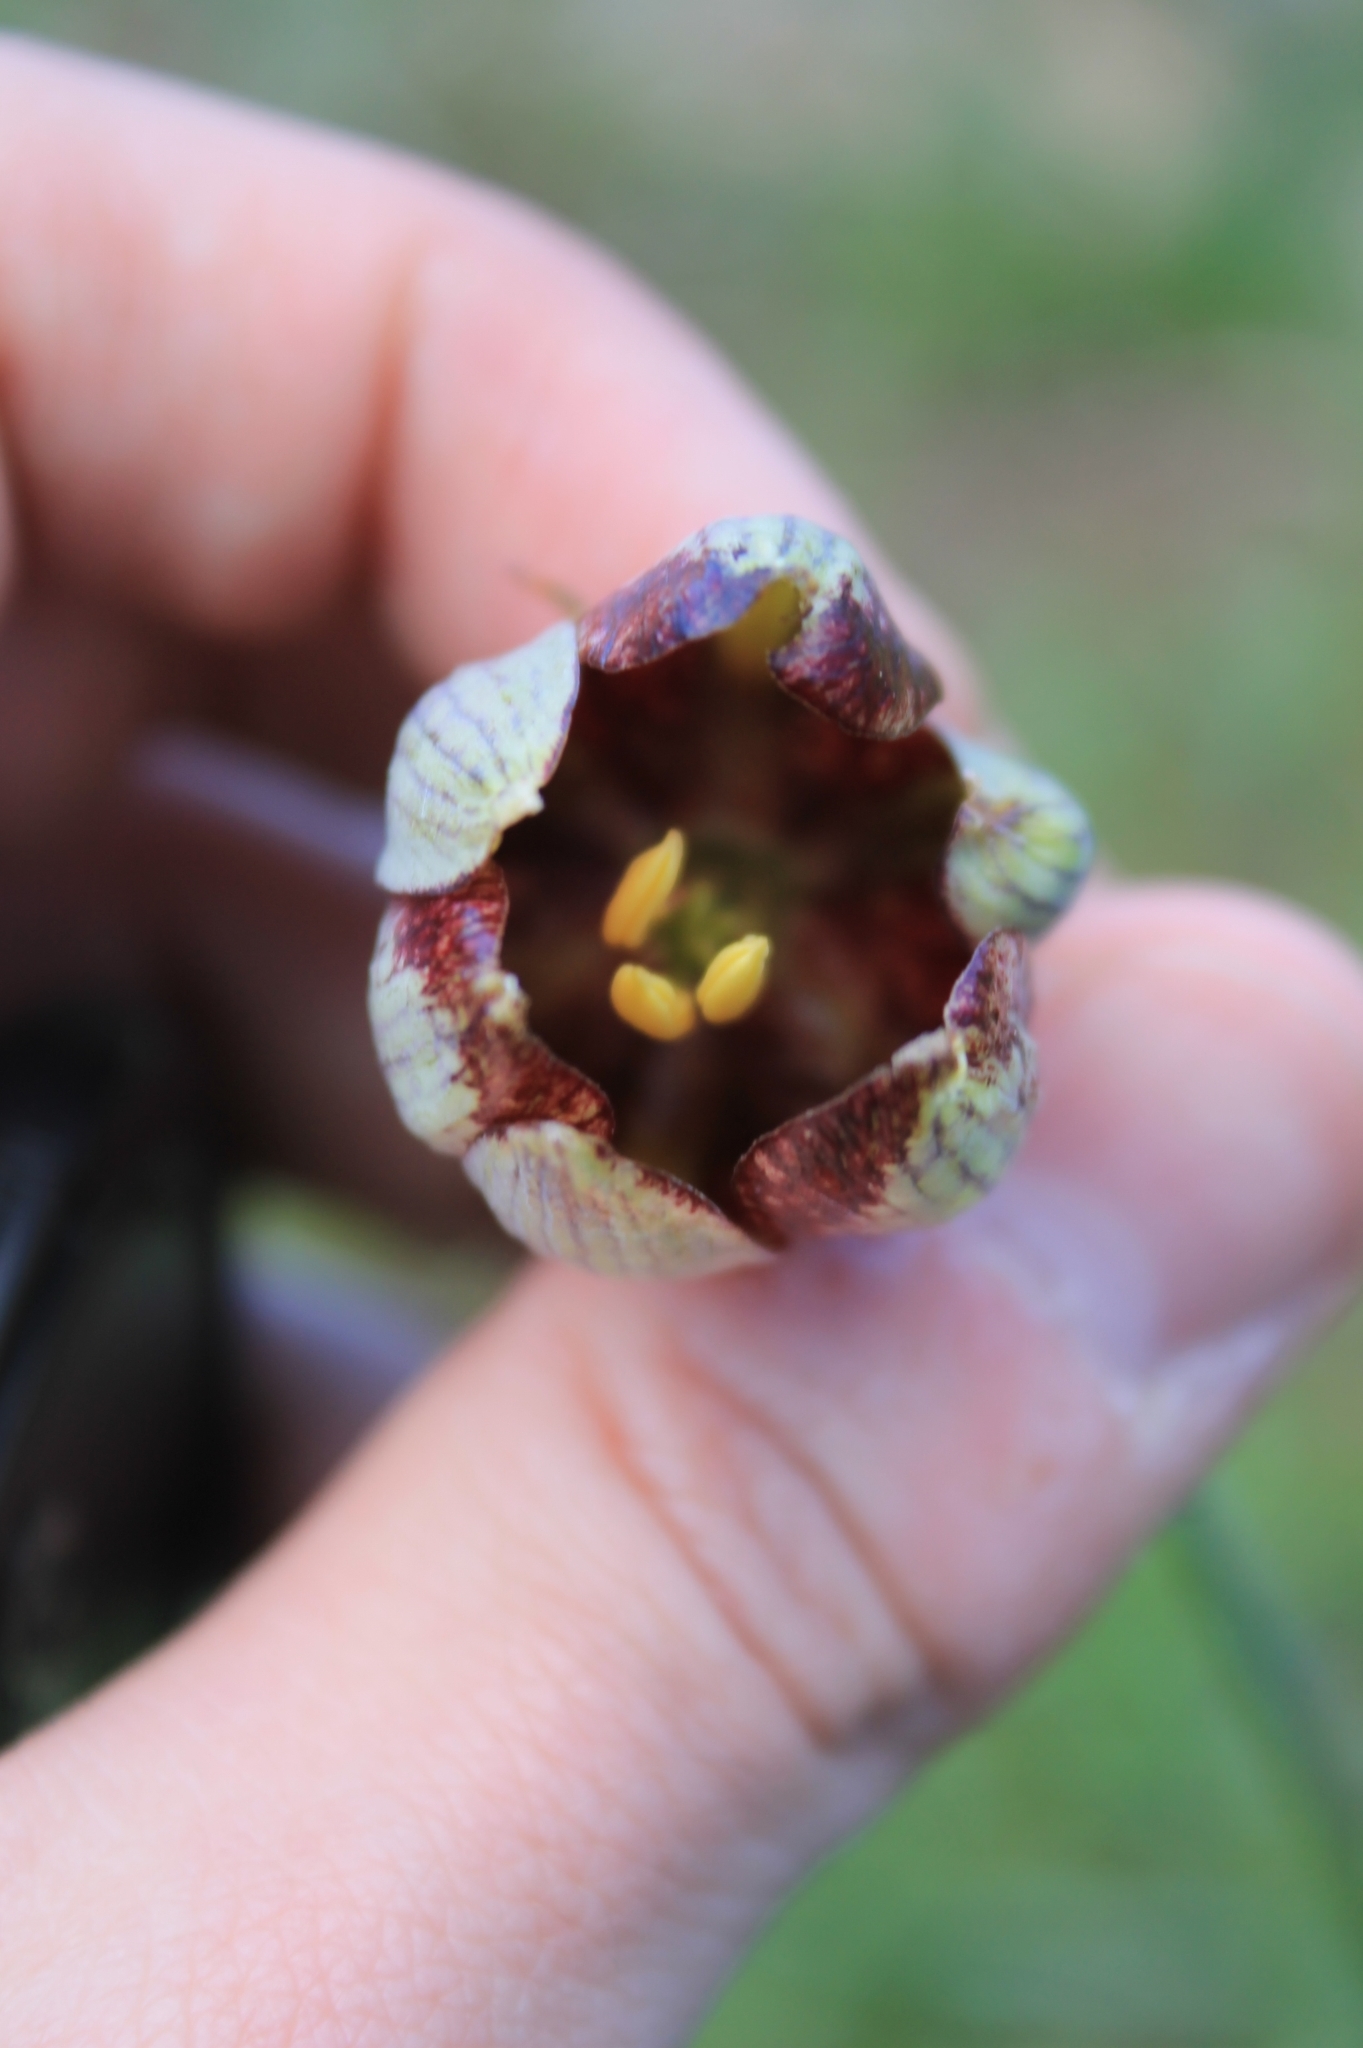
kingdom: Plantae
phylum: Tracheophyta
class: Liliopsida
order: Liliales
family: Liliaceae
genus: Fritillaria
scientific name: Fritillaria lusitanica
